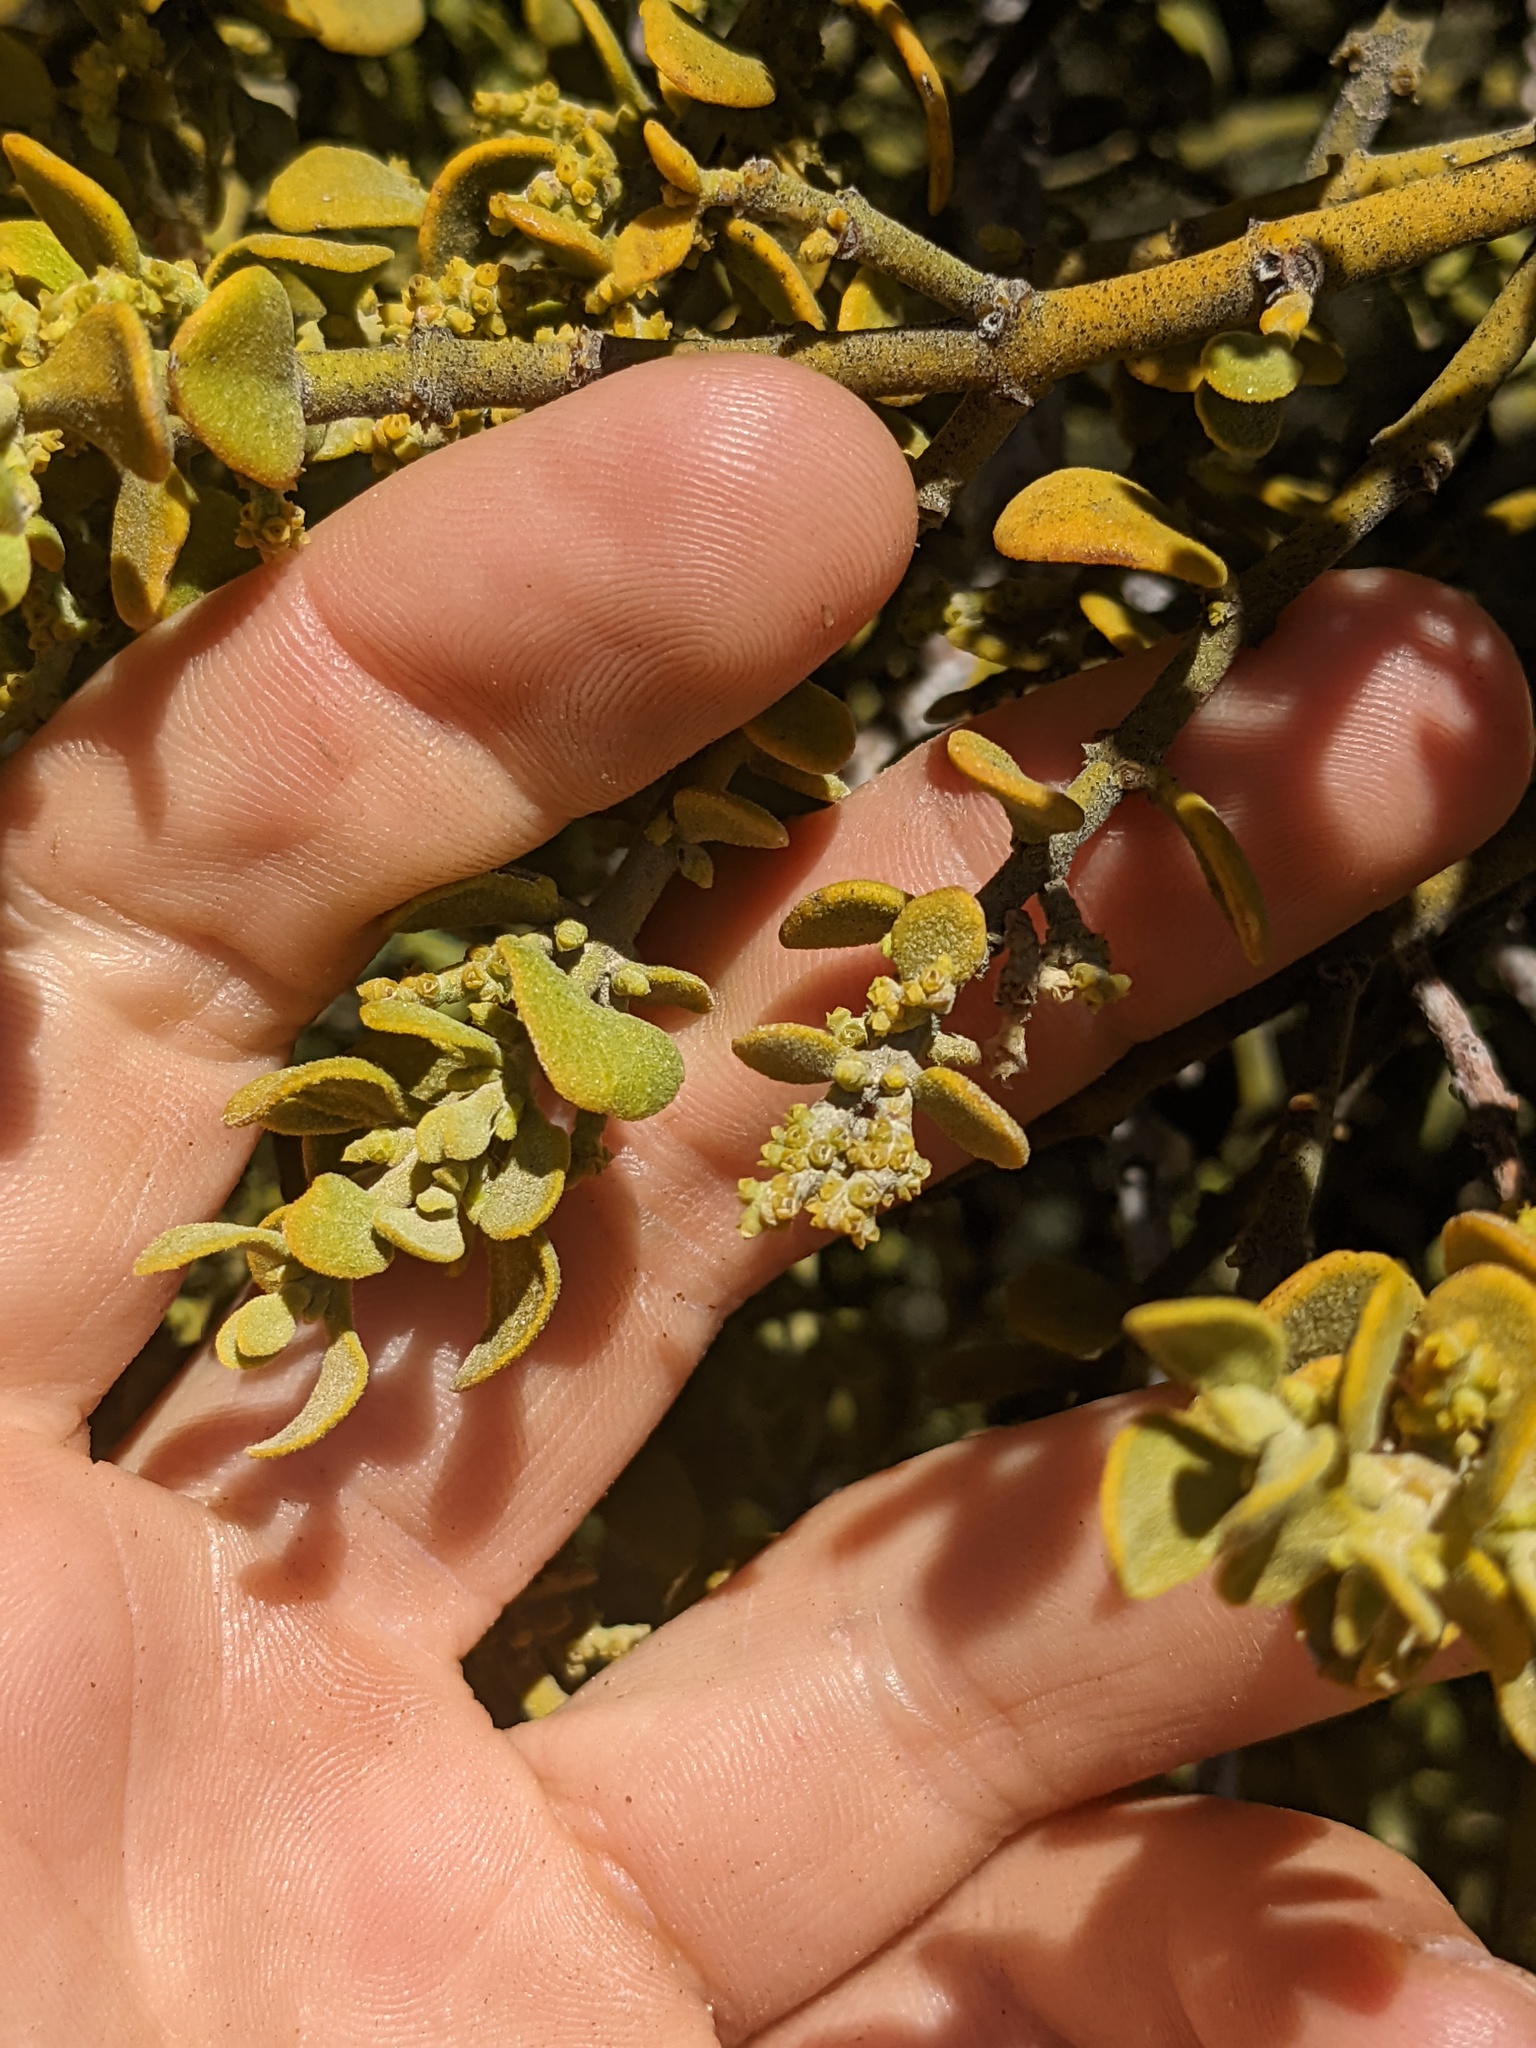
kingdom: Plantae
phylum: Tracheophyta
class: Magnoliopsida
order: Santalales
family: Viscaceae
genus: Phoradendron
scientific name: Phoradendron leucarpum
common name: Pacific mistletoe
